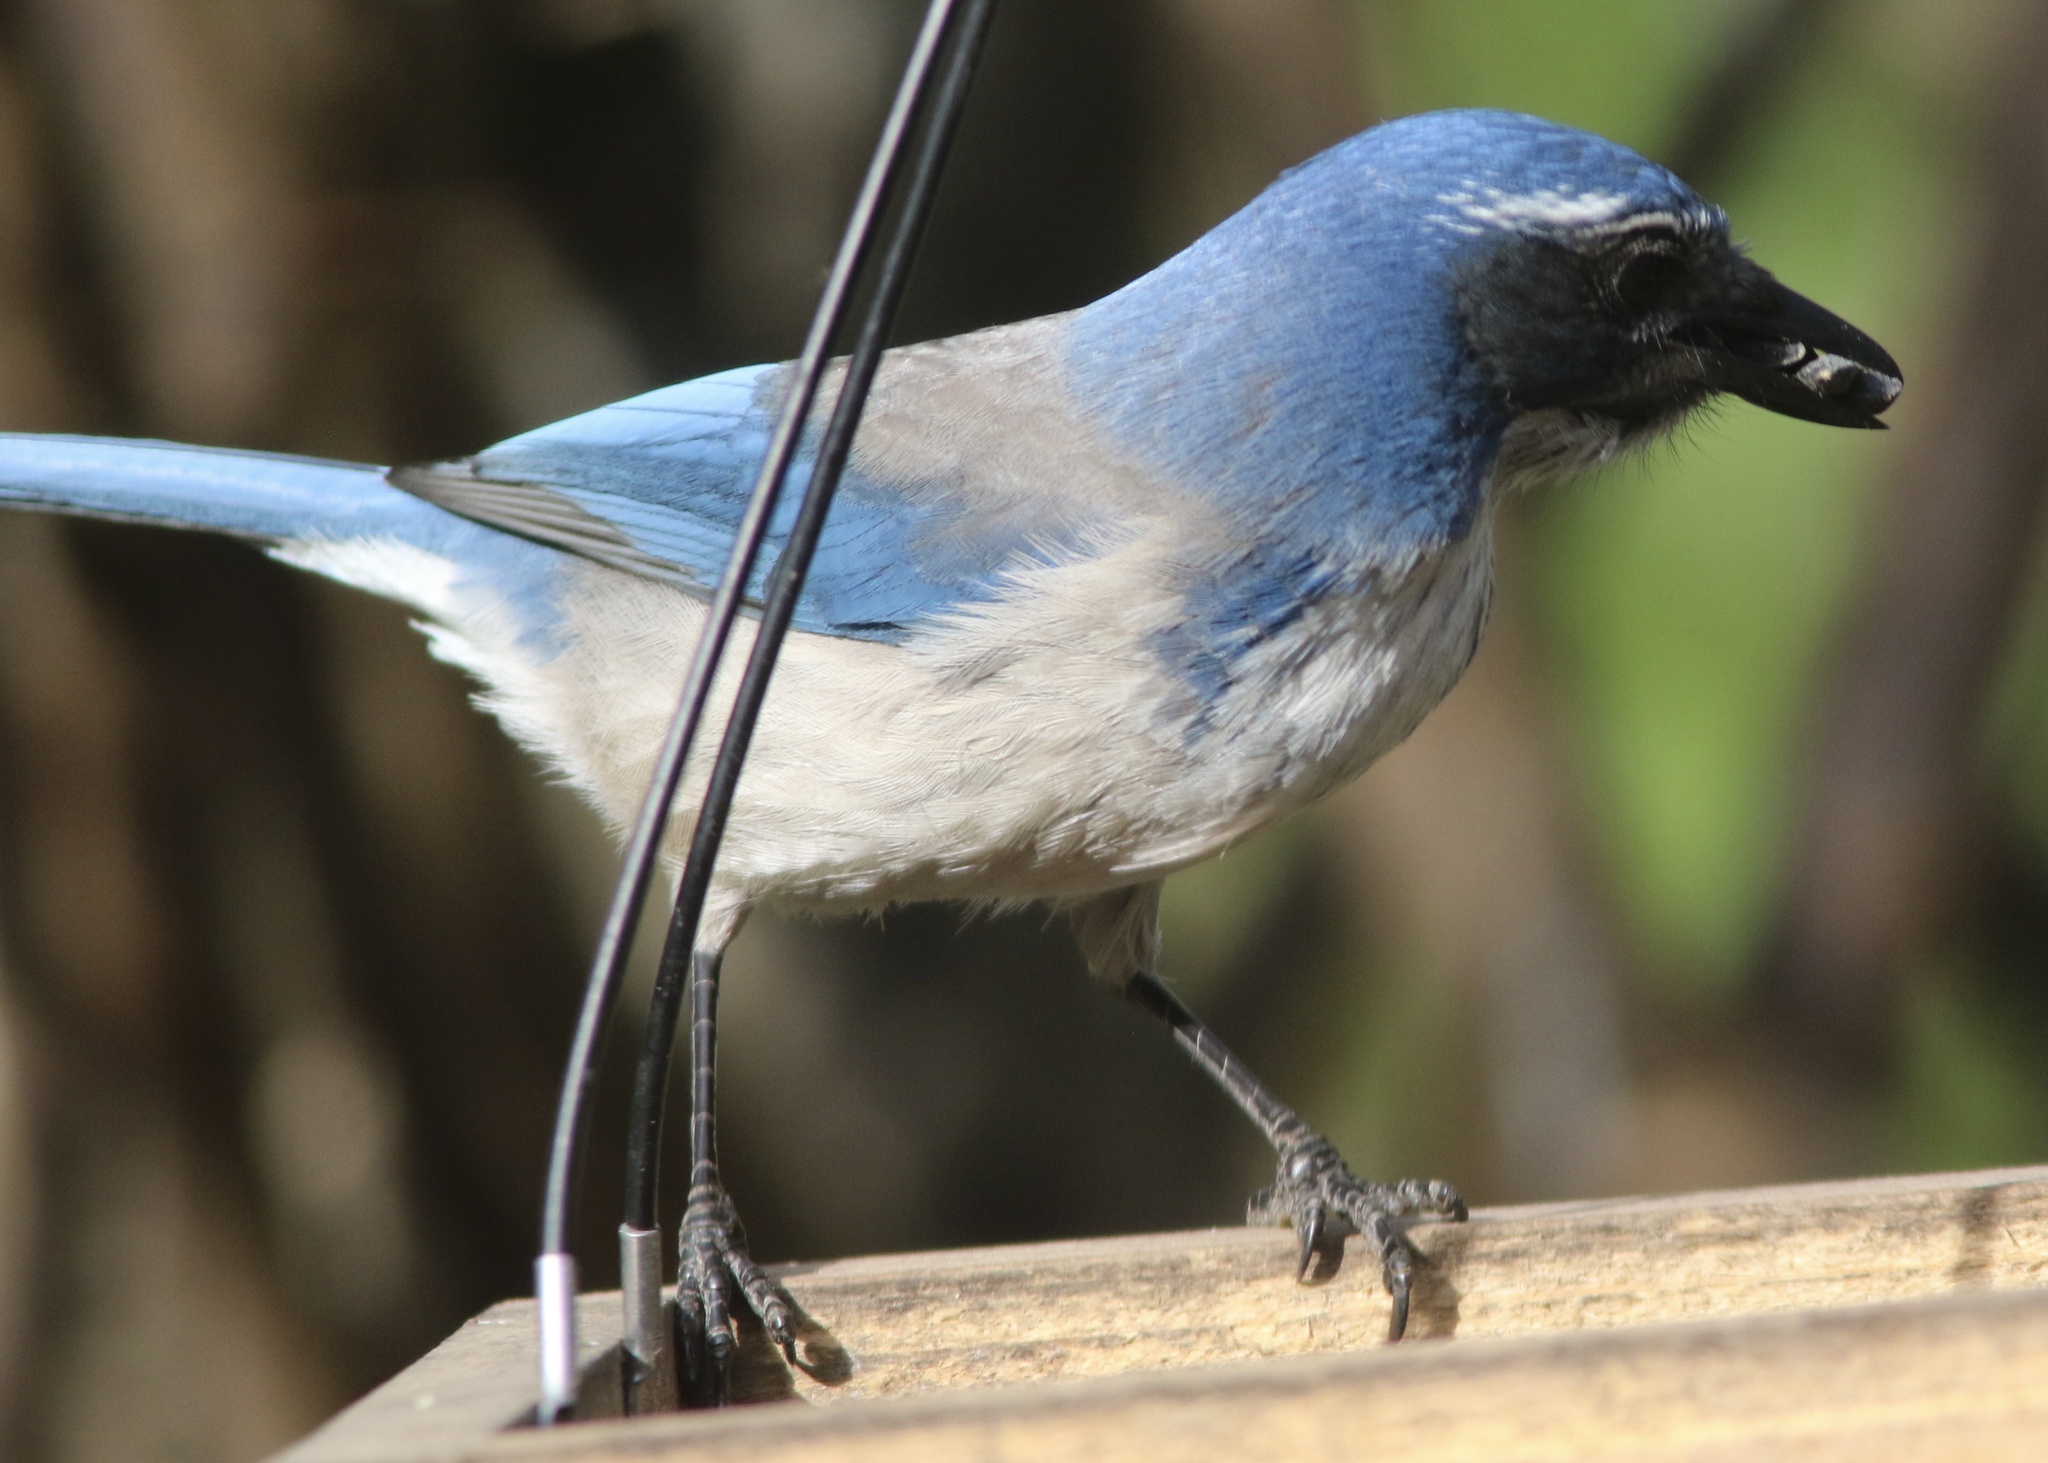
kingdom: Animalia
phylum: Chordata
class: Aves
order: Passeriformes
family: Corvidae
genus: Aphelocoma
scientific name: Aphelocoma californica
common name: California scrub-jay
